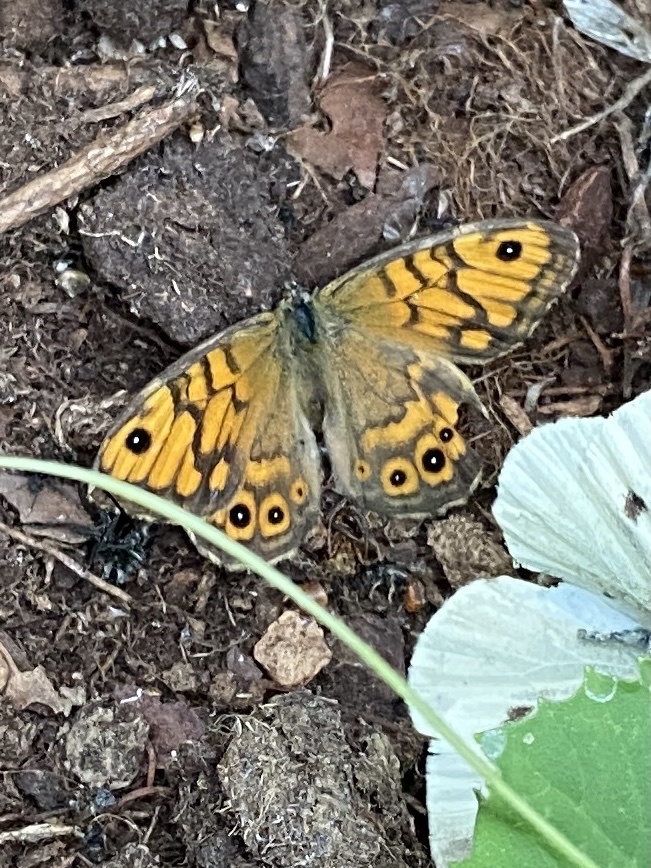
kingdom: Animalia
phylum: Arthropoda
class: Insecta
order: Lepidoptera
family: Nymphalidae
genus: Pararge
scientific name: Pararge Lasiommata megera
